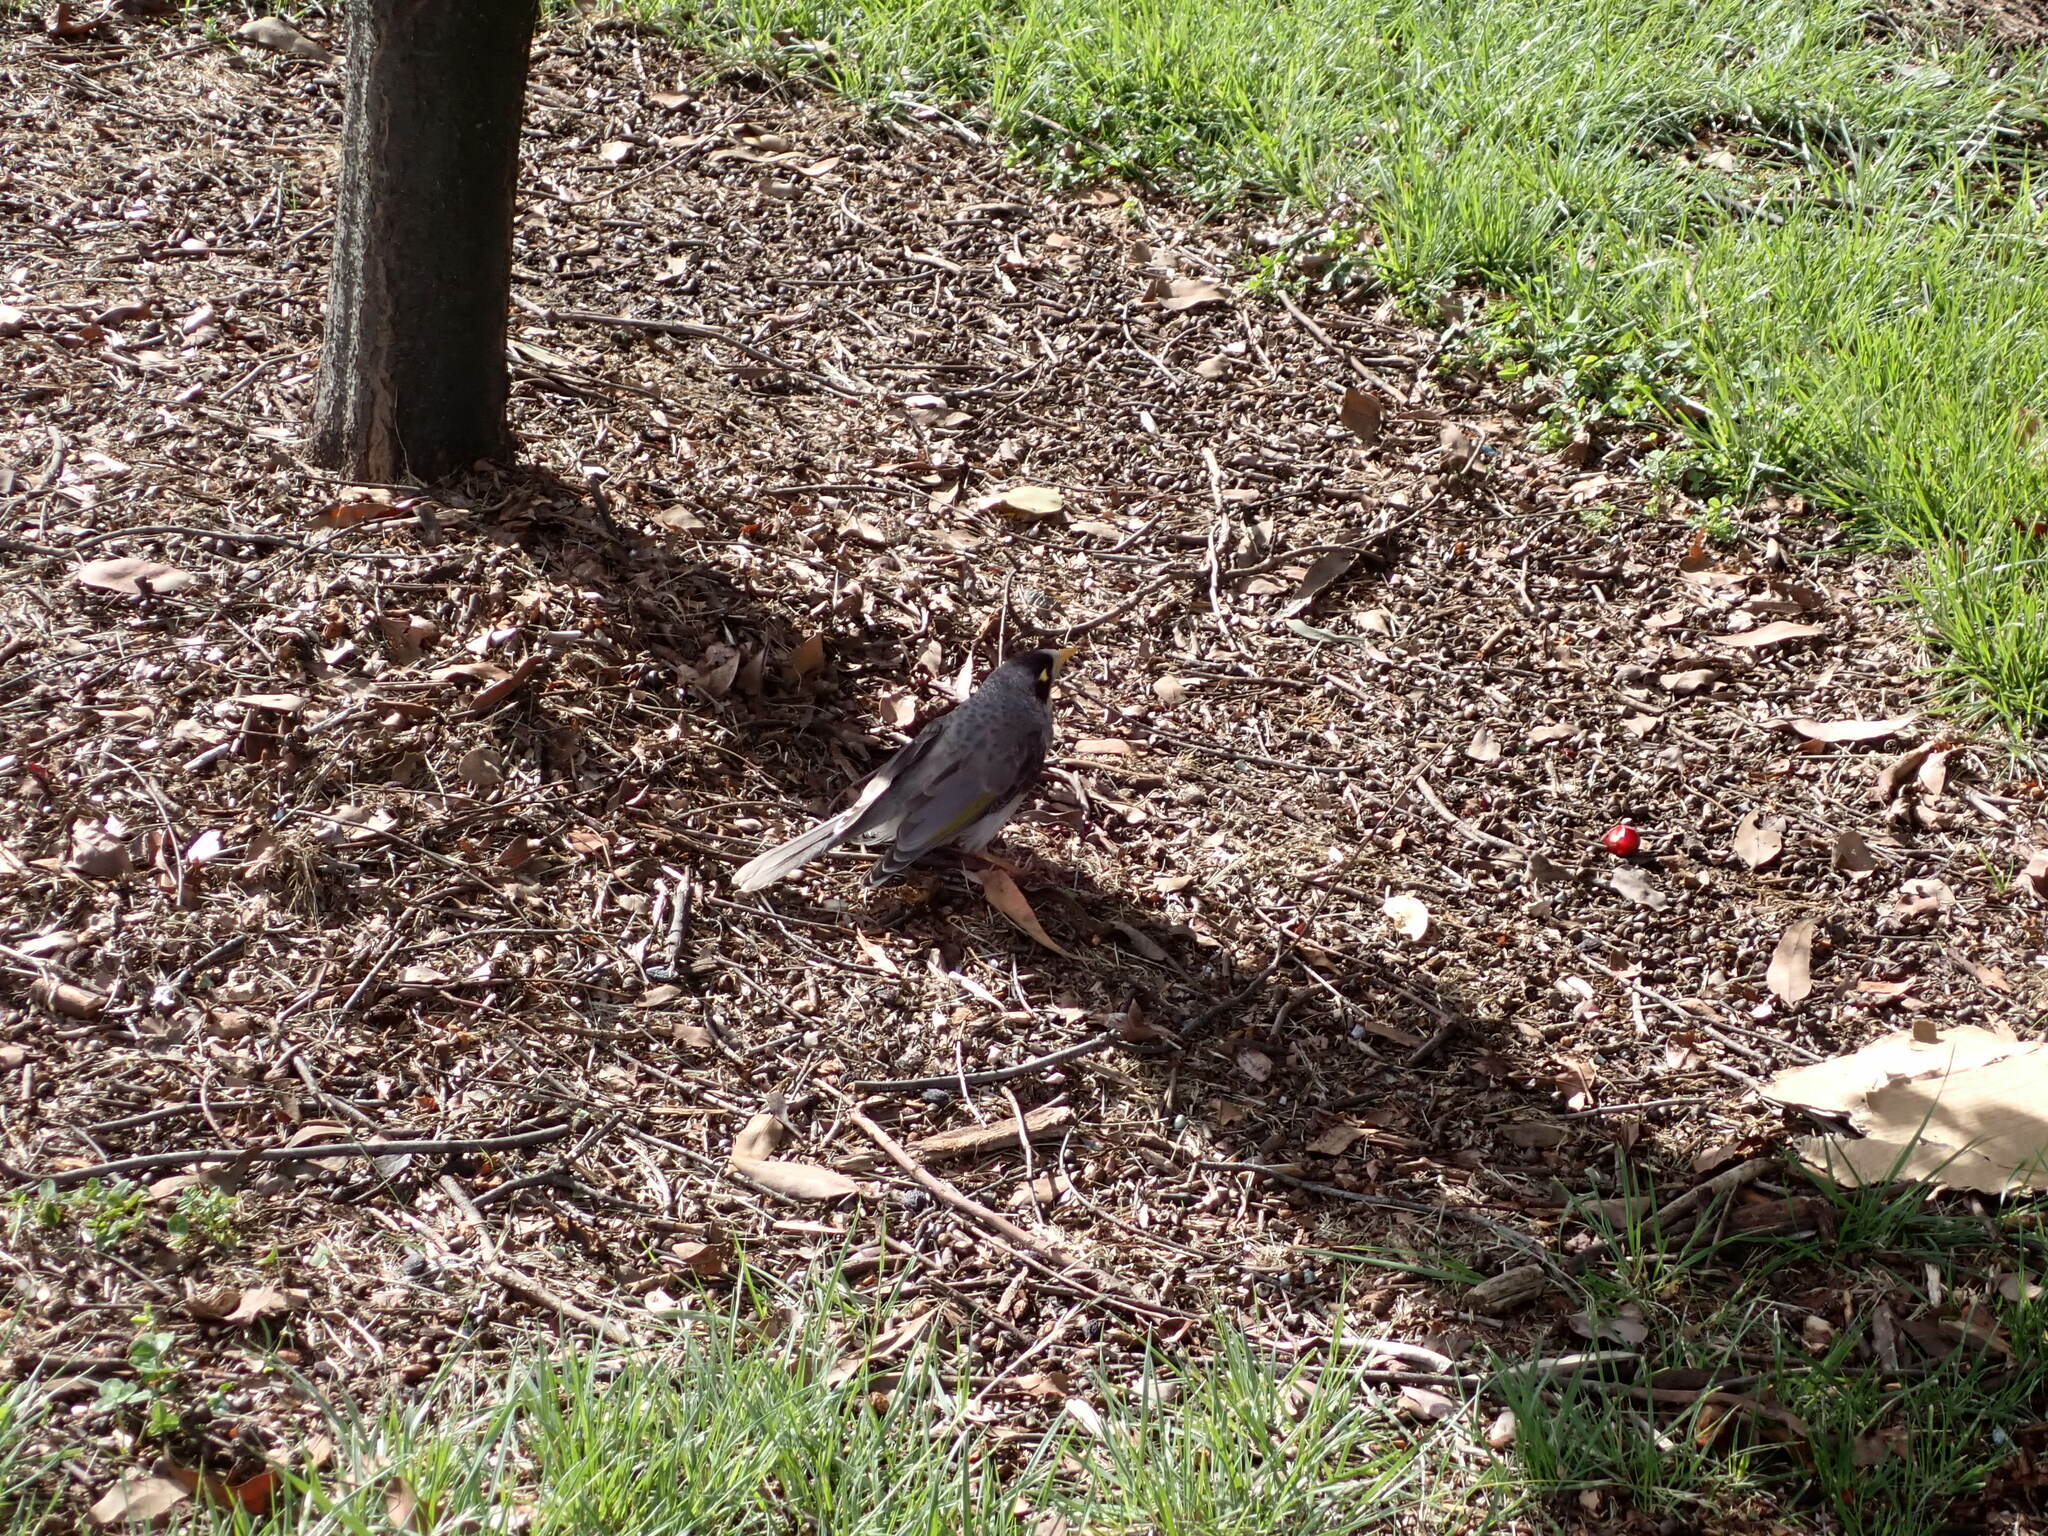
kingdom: Animalia
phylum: Chordata
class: Aves
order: Passeriformes
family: Meliphagidae
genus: Manorina
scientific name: Manorina melanocephala
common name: Noisy miner
